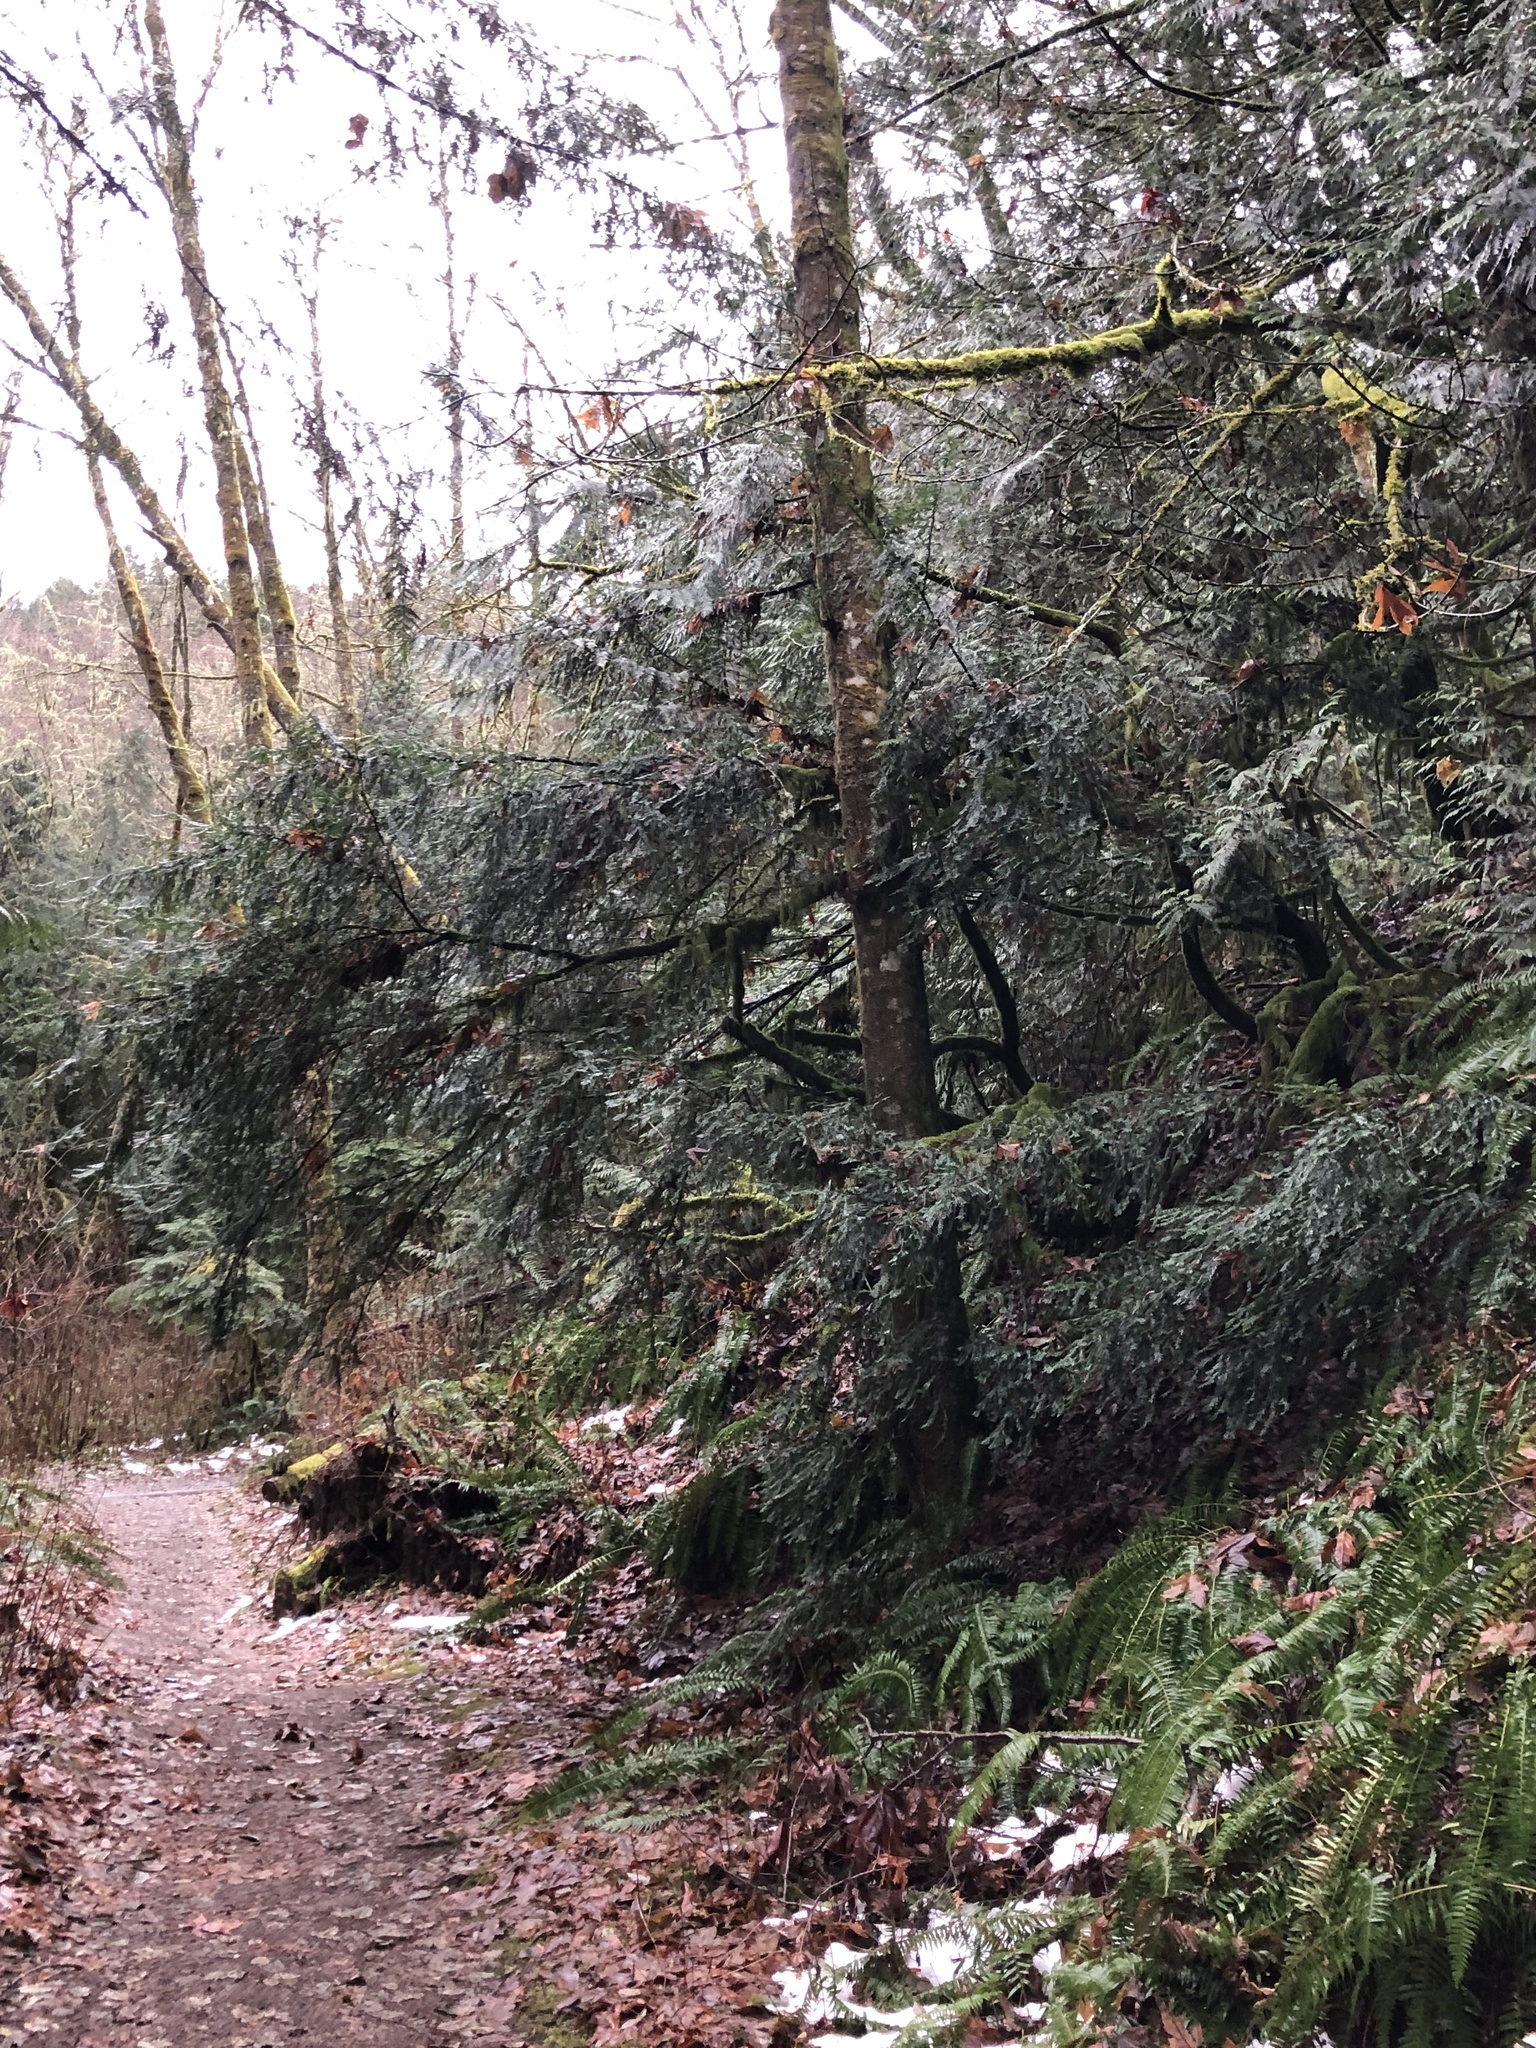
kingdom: Plantae
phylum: Tracheophyta
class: Pinopsida
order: Pinales
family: Taxaceae
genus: Taxus
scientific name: Taxus brevifolia
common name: Pacific yew
